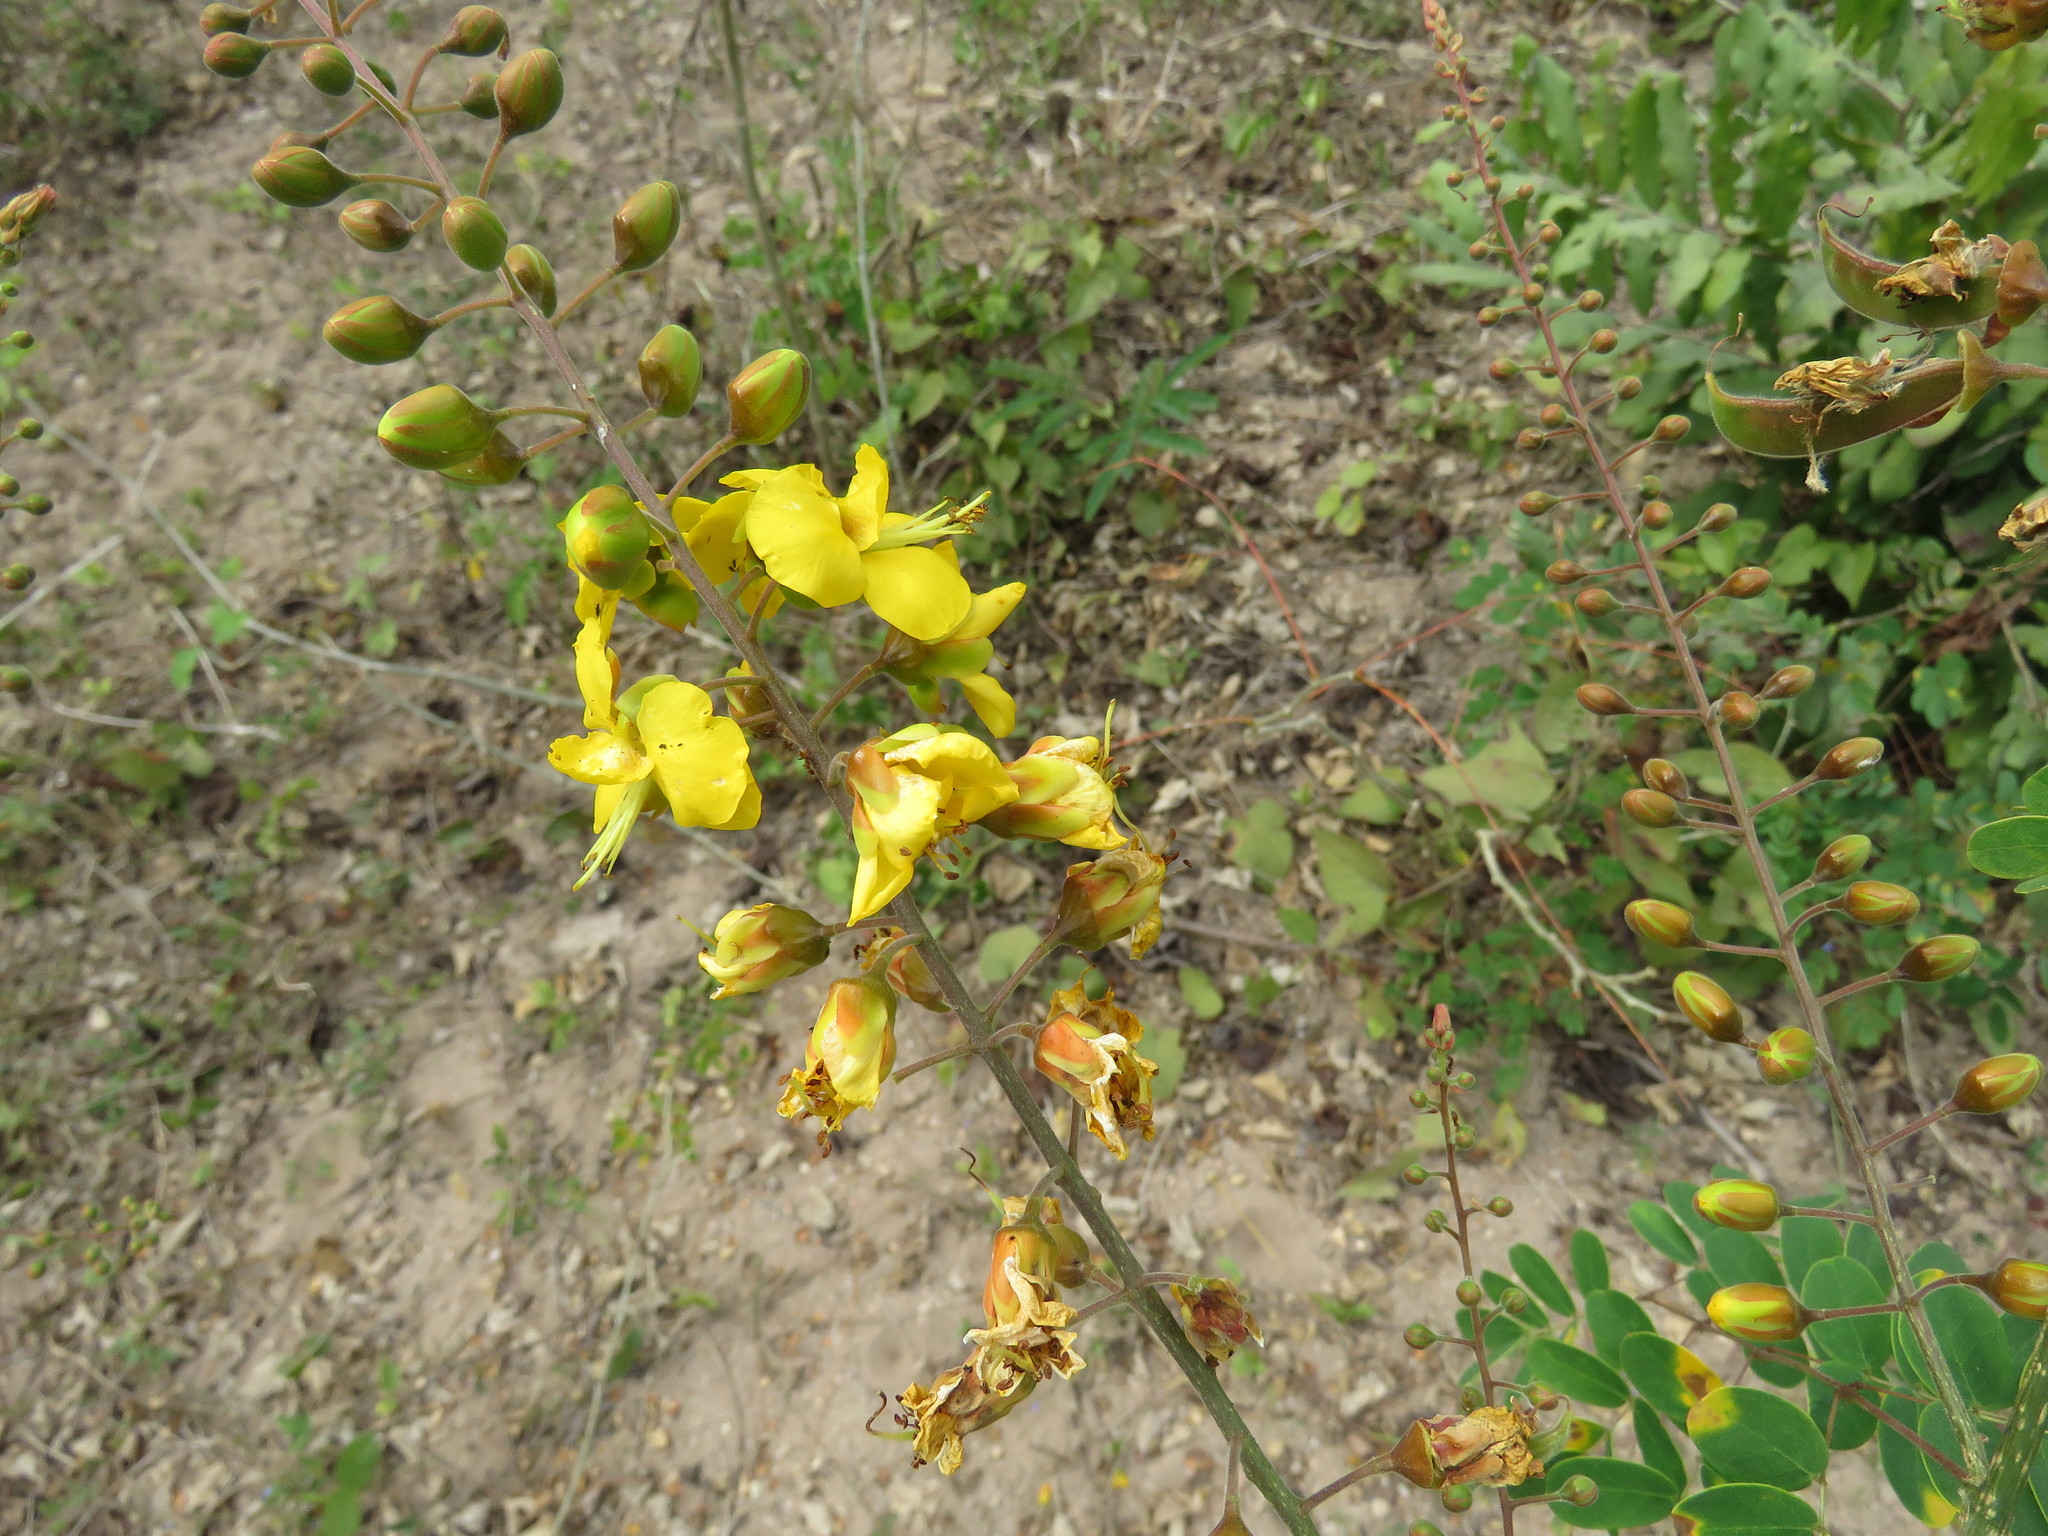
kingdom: Plantae
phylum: Tracheophyta
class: Magnoliopsida
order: Fabales
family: Fabaceae
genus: Erythrostemon
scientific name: Erythrostemon caladenia
